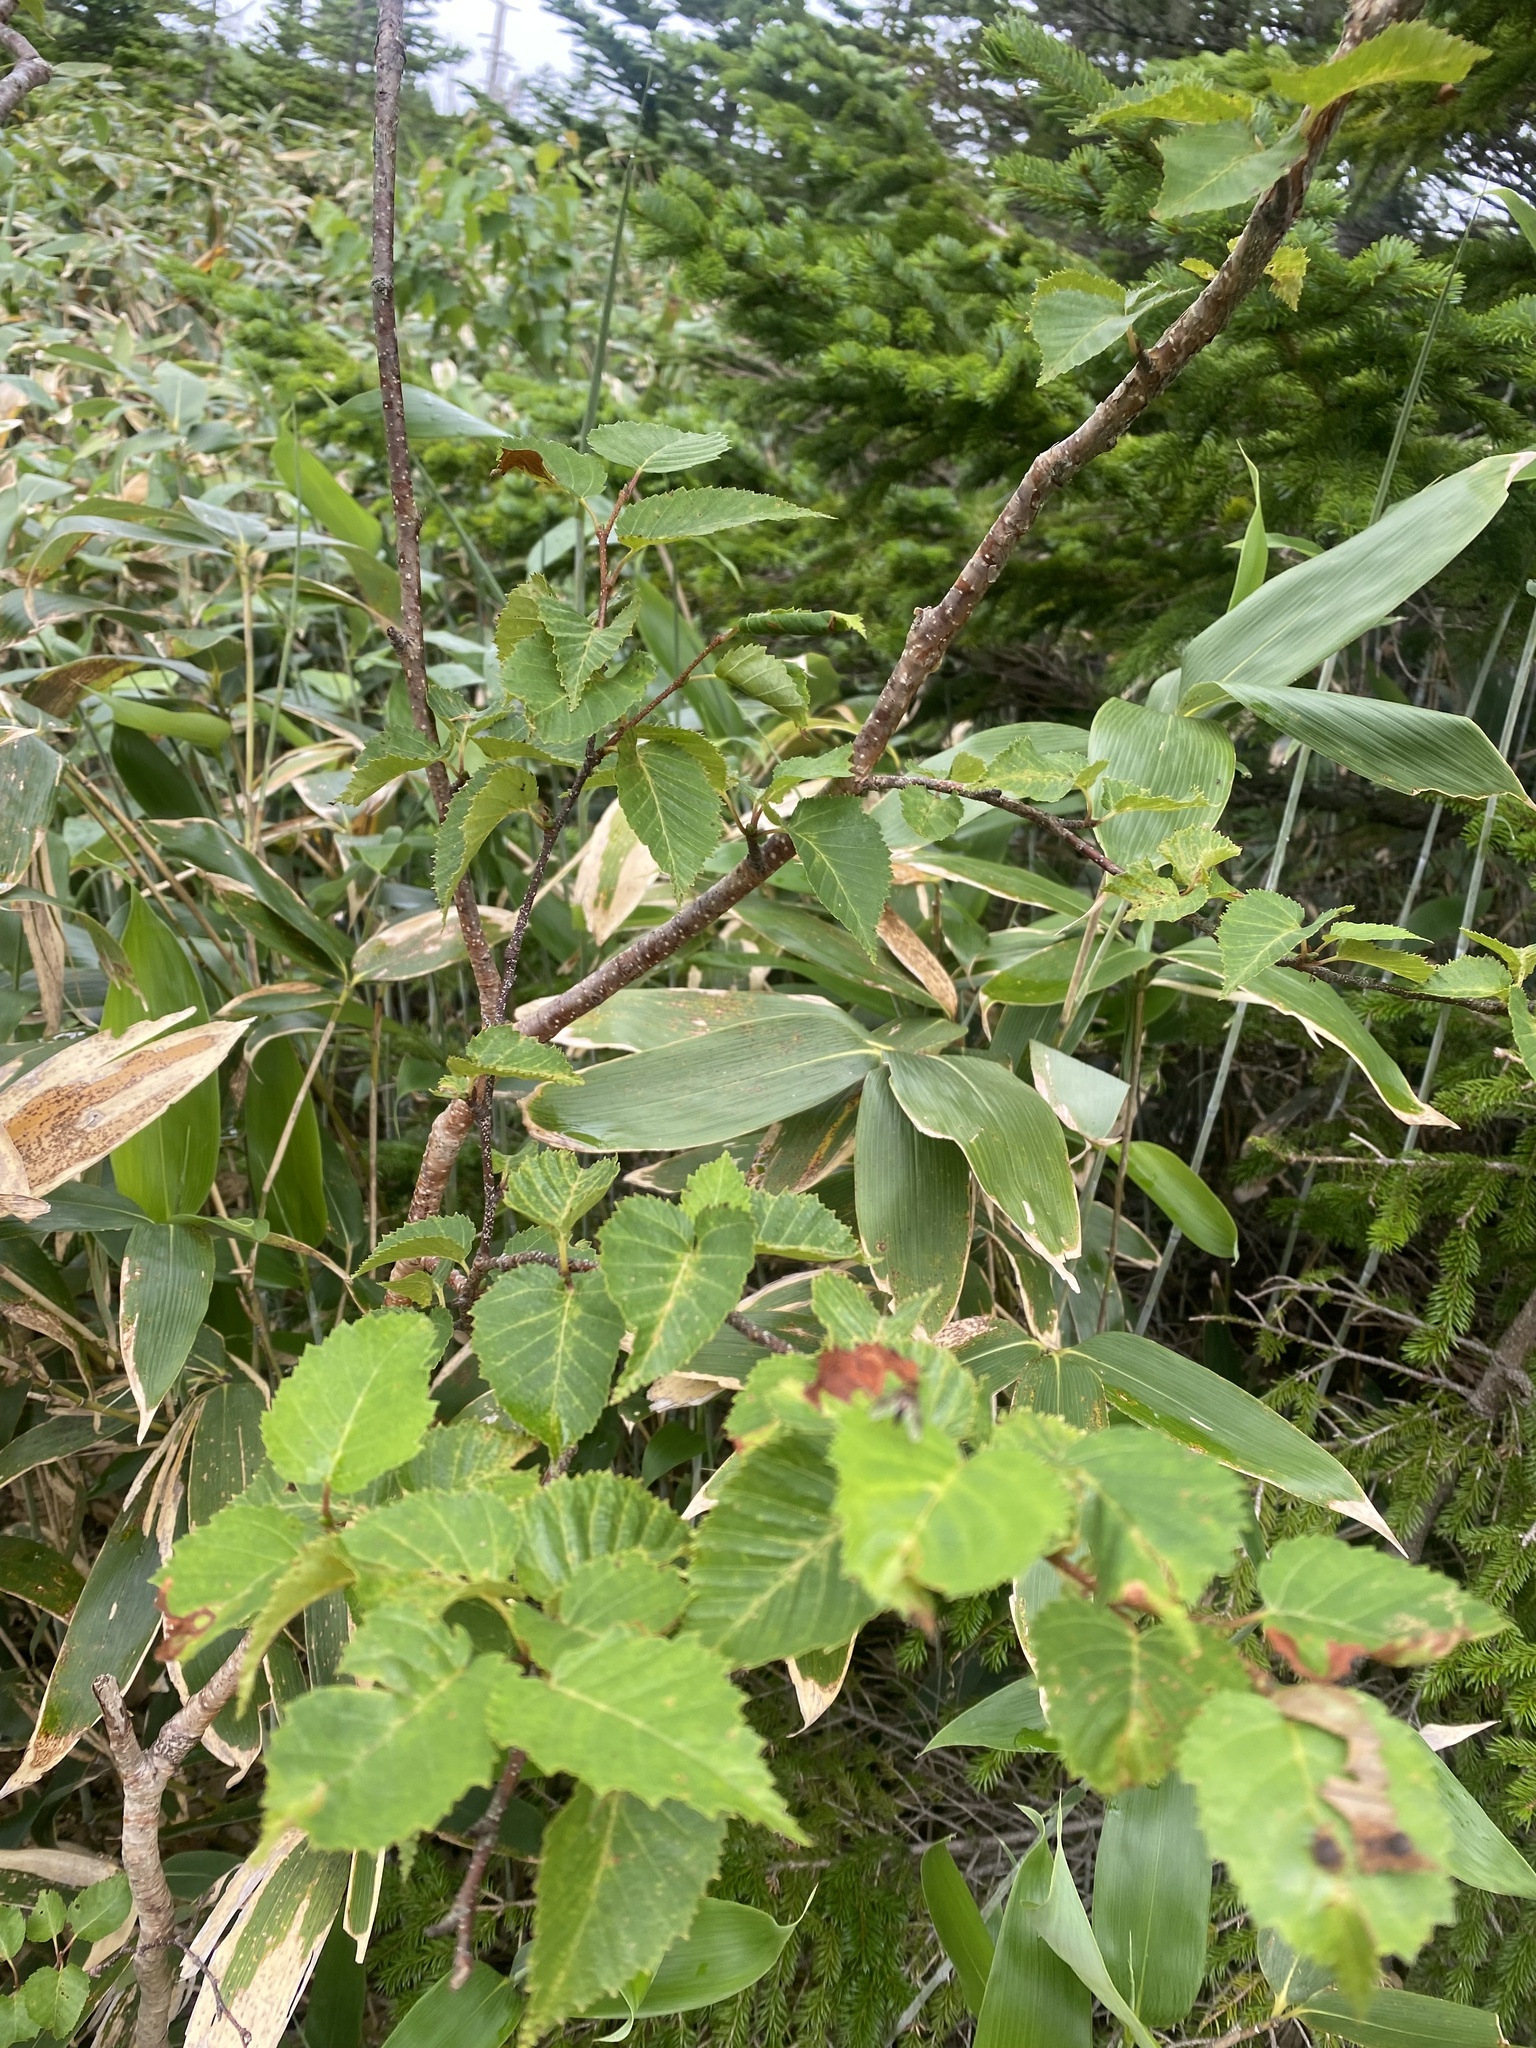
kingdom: Plantae
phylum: Tracheophyta
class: Magnoliopsida
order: Fagales
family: Betulaceae
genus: Betula
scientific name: Betula ermanii
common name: Erman's birch
